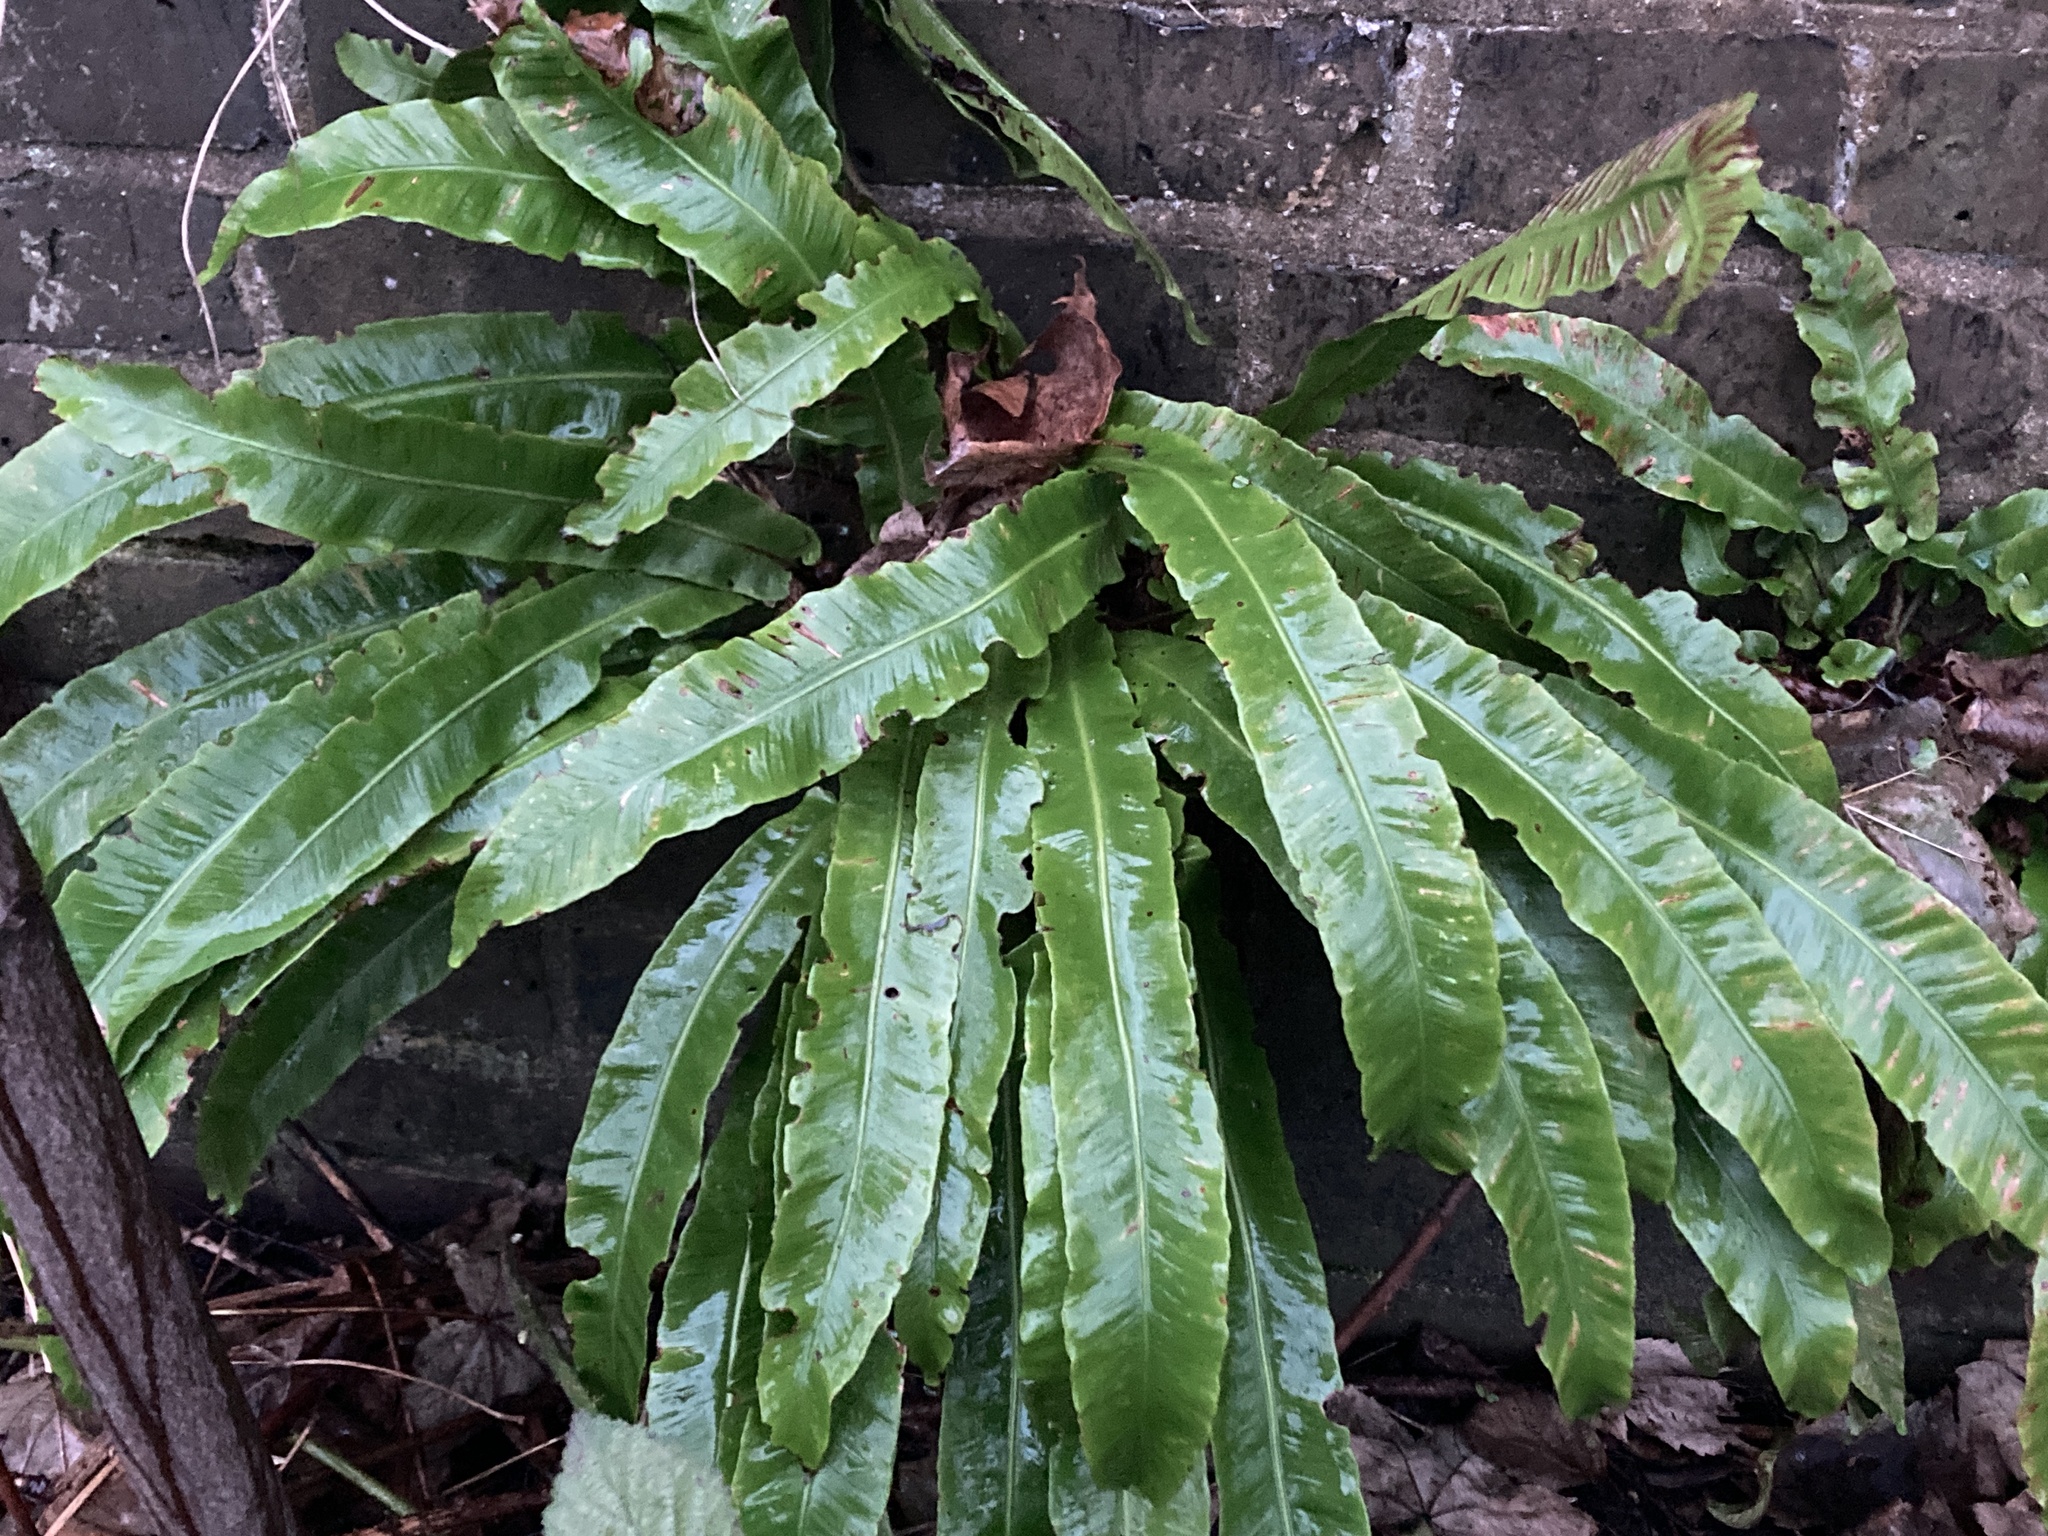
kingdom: Plantae
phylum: Tracheophyta
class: Polypodiopsida
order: Polypodiales
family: Aspleniaceae
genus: Asplenium
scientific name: Asplenium scolopendrium
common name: Hart's-tongue fern
